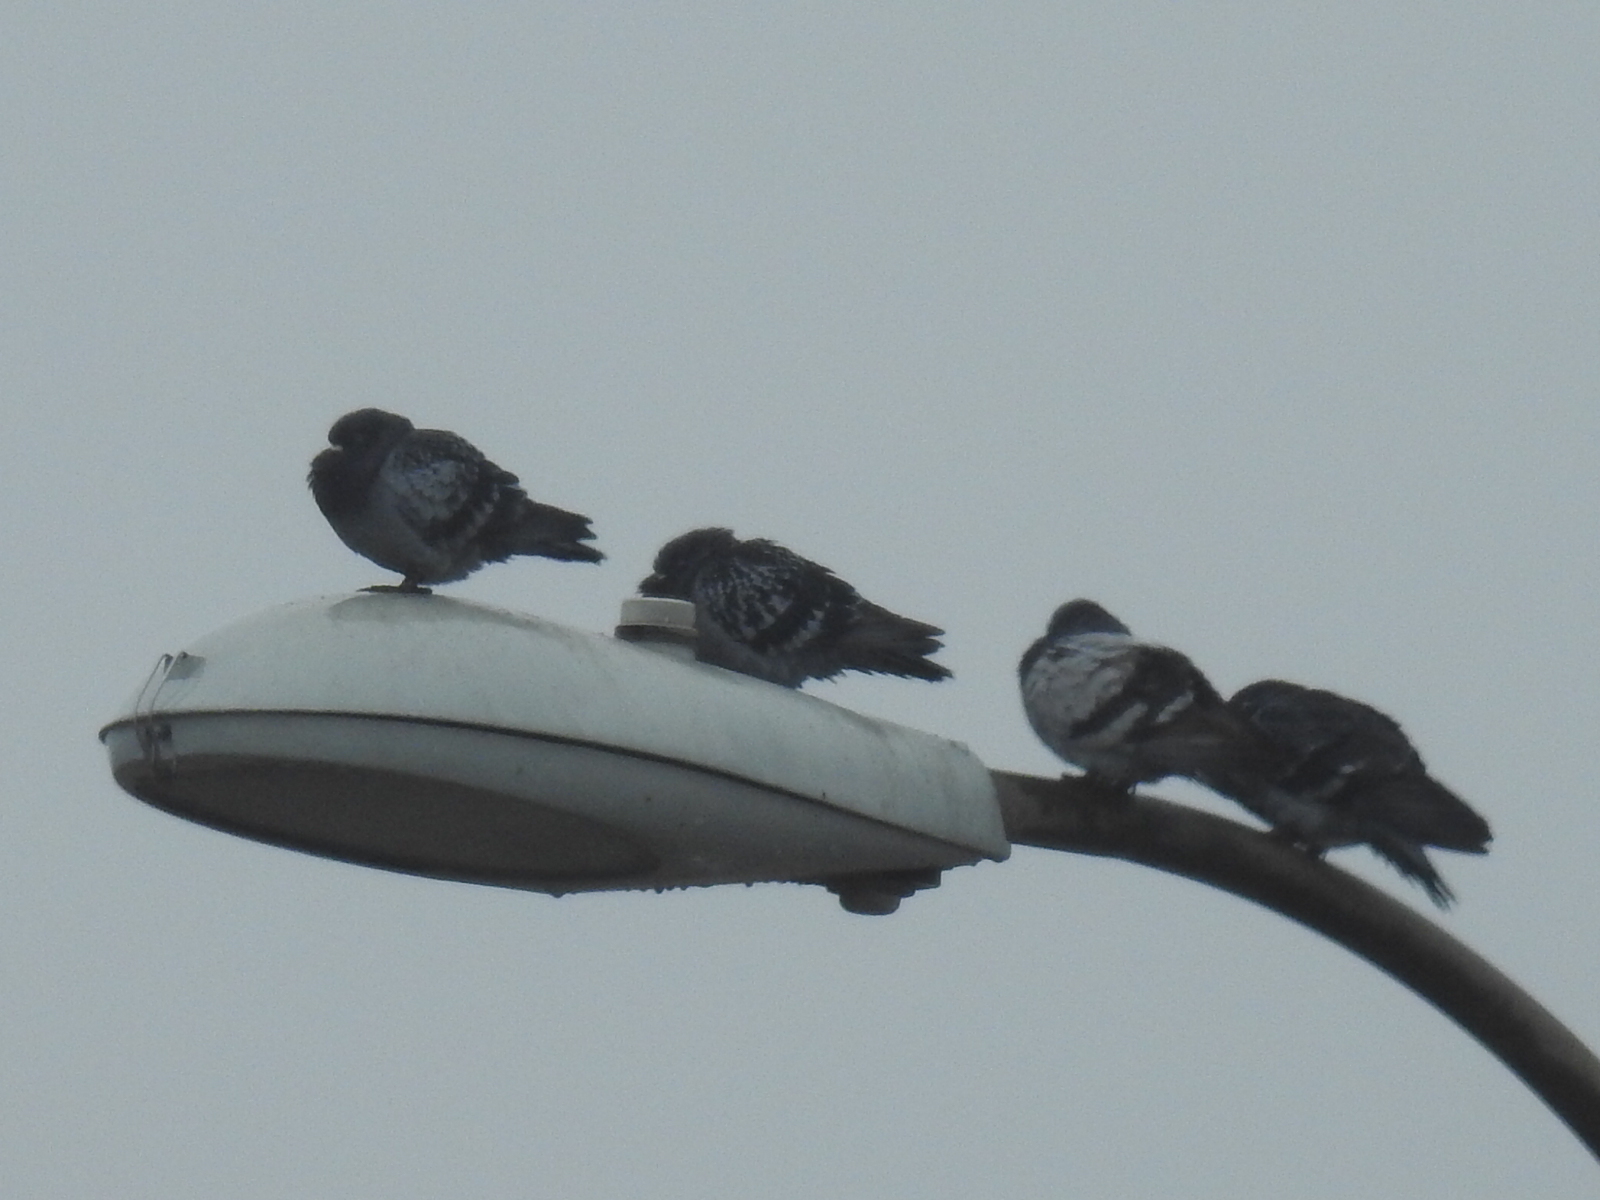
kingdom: Animalia
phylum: Chordata
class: Aves
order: Columbiformes
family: Columbidae
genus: Columba
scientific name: Columba livia
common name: Rock pigeon
